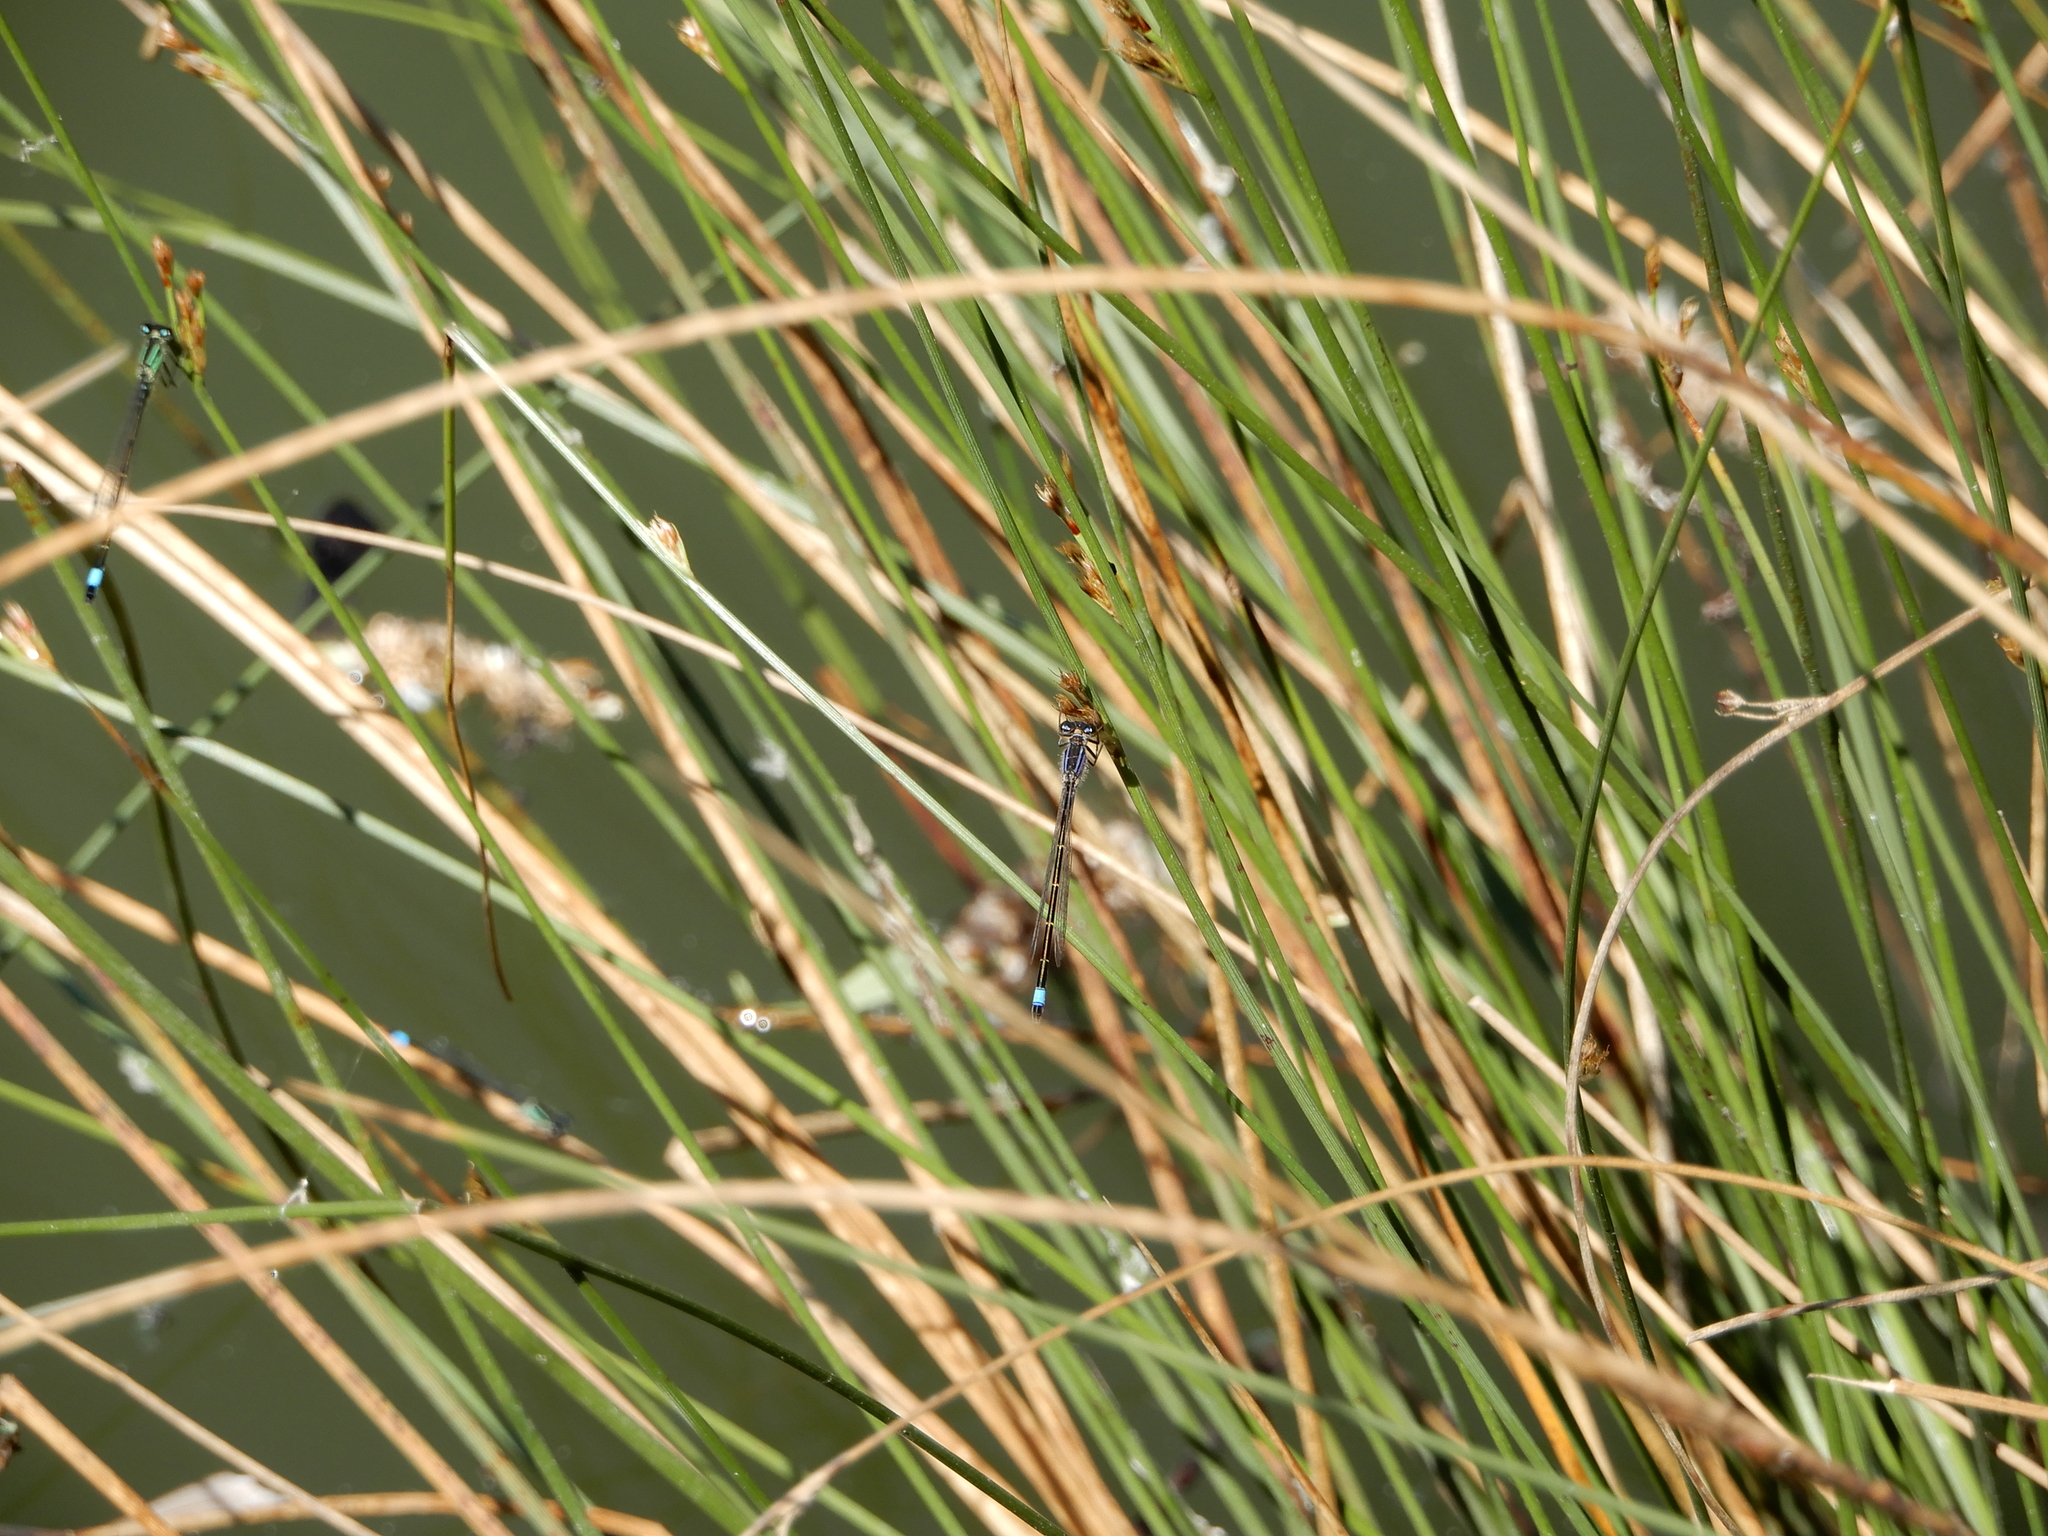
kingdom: Animalia
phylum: Arthropoda
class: Insecta
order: Odonata
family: Coenagrionidae
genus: Ischnura
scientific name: Ischnura elegans
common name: Blue-tailed damselfly
